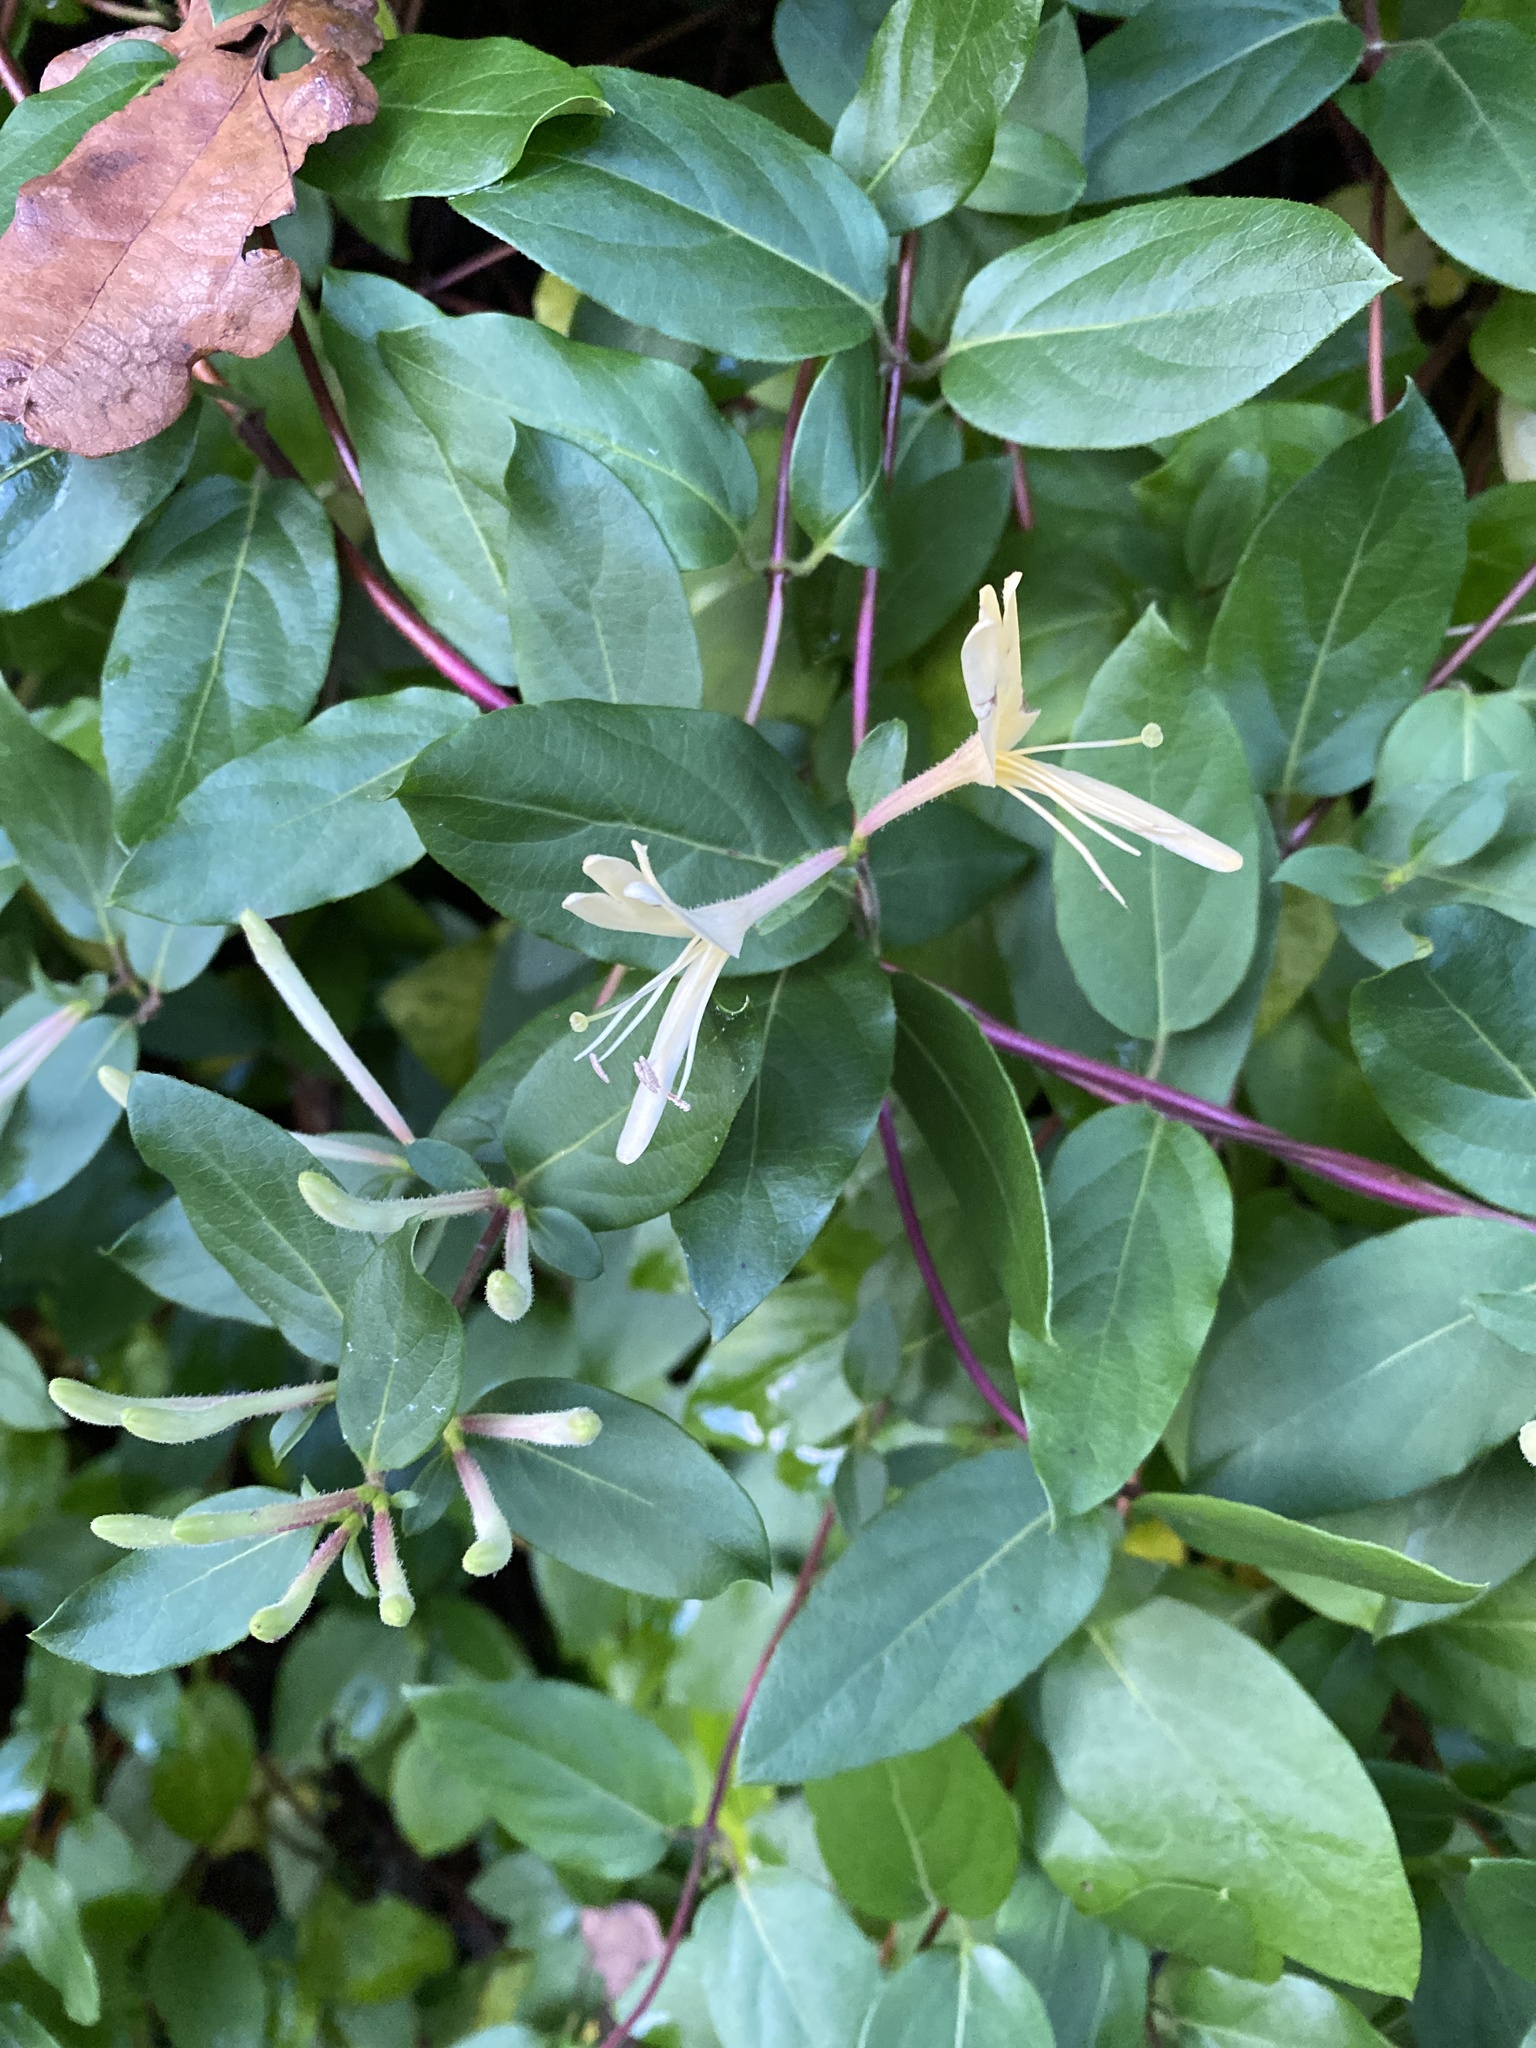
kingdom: Plantae
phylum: Tracheophyta
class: Magnoliopsida
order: Dipsacales
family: Caprifoliaceae
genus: Lonicera
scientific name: Lonicera japonica
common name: Japanese honeysuckle
